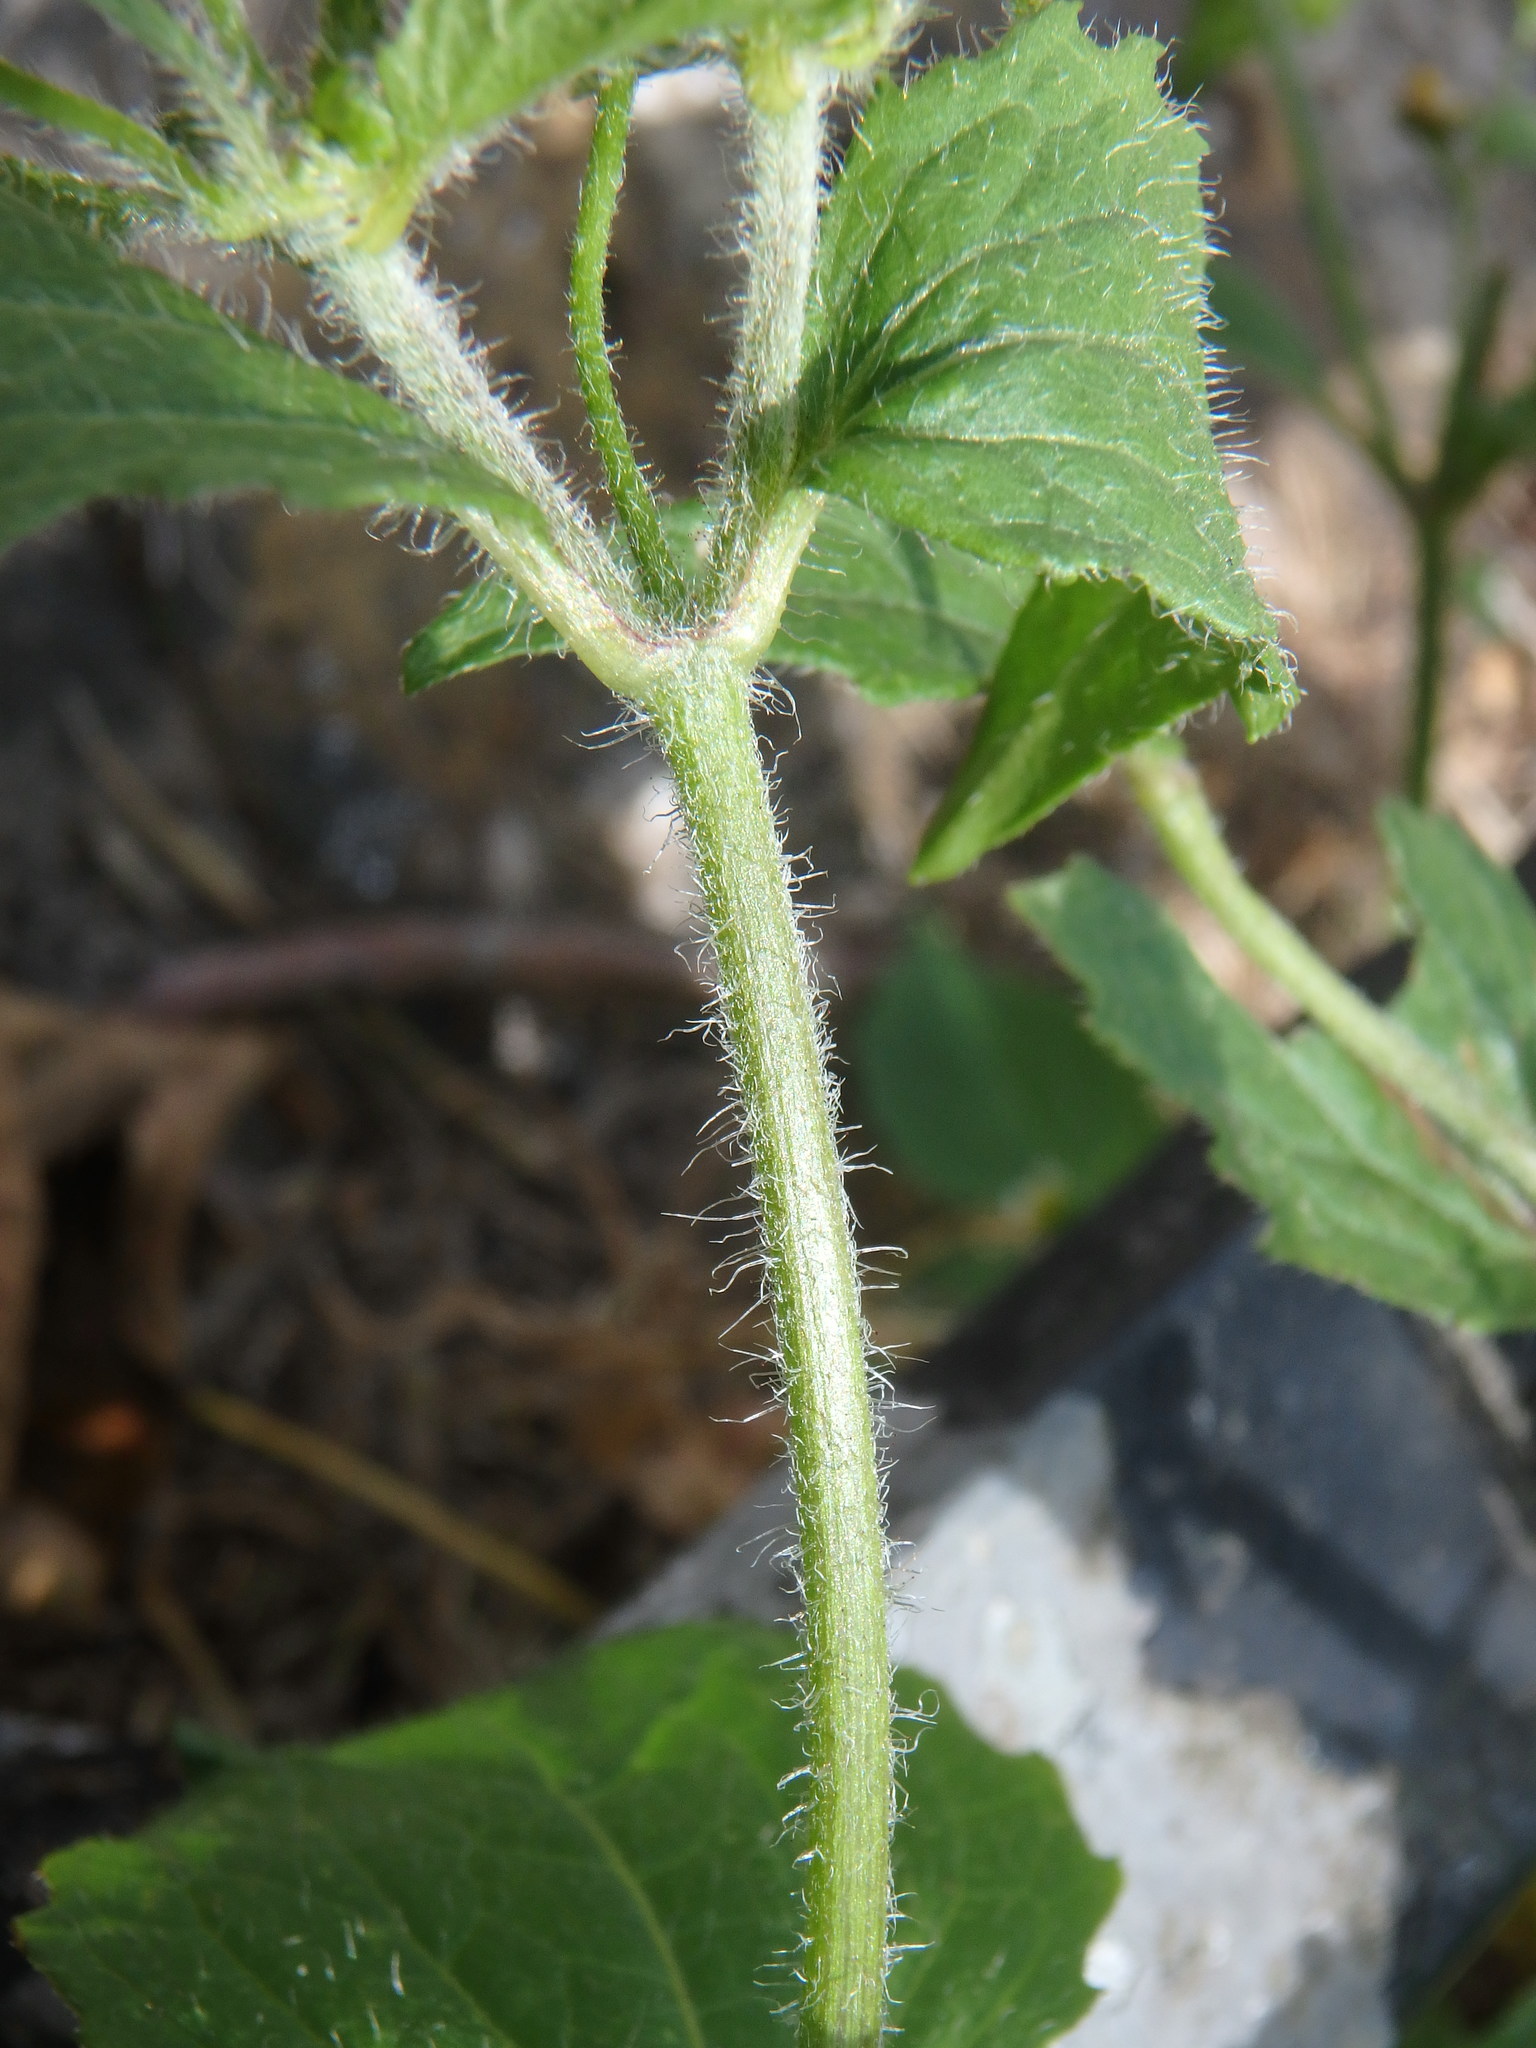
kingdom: Plantae
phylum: Tracheophyta
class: Magnoliopsida
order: Asterales
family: Asteraceae
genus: Galinsoga
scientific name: Galinsoga quadriradiata
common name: Shaggy soldier
